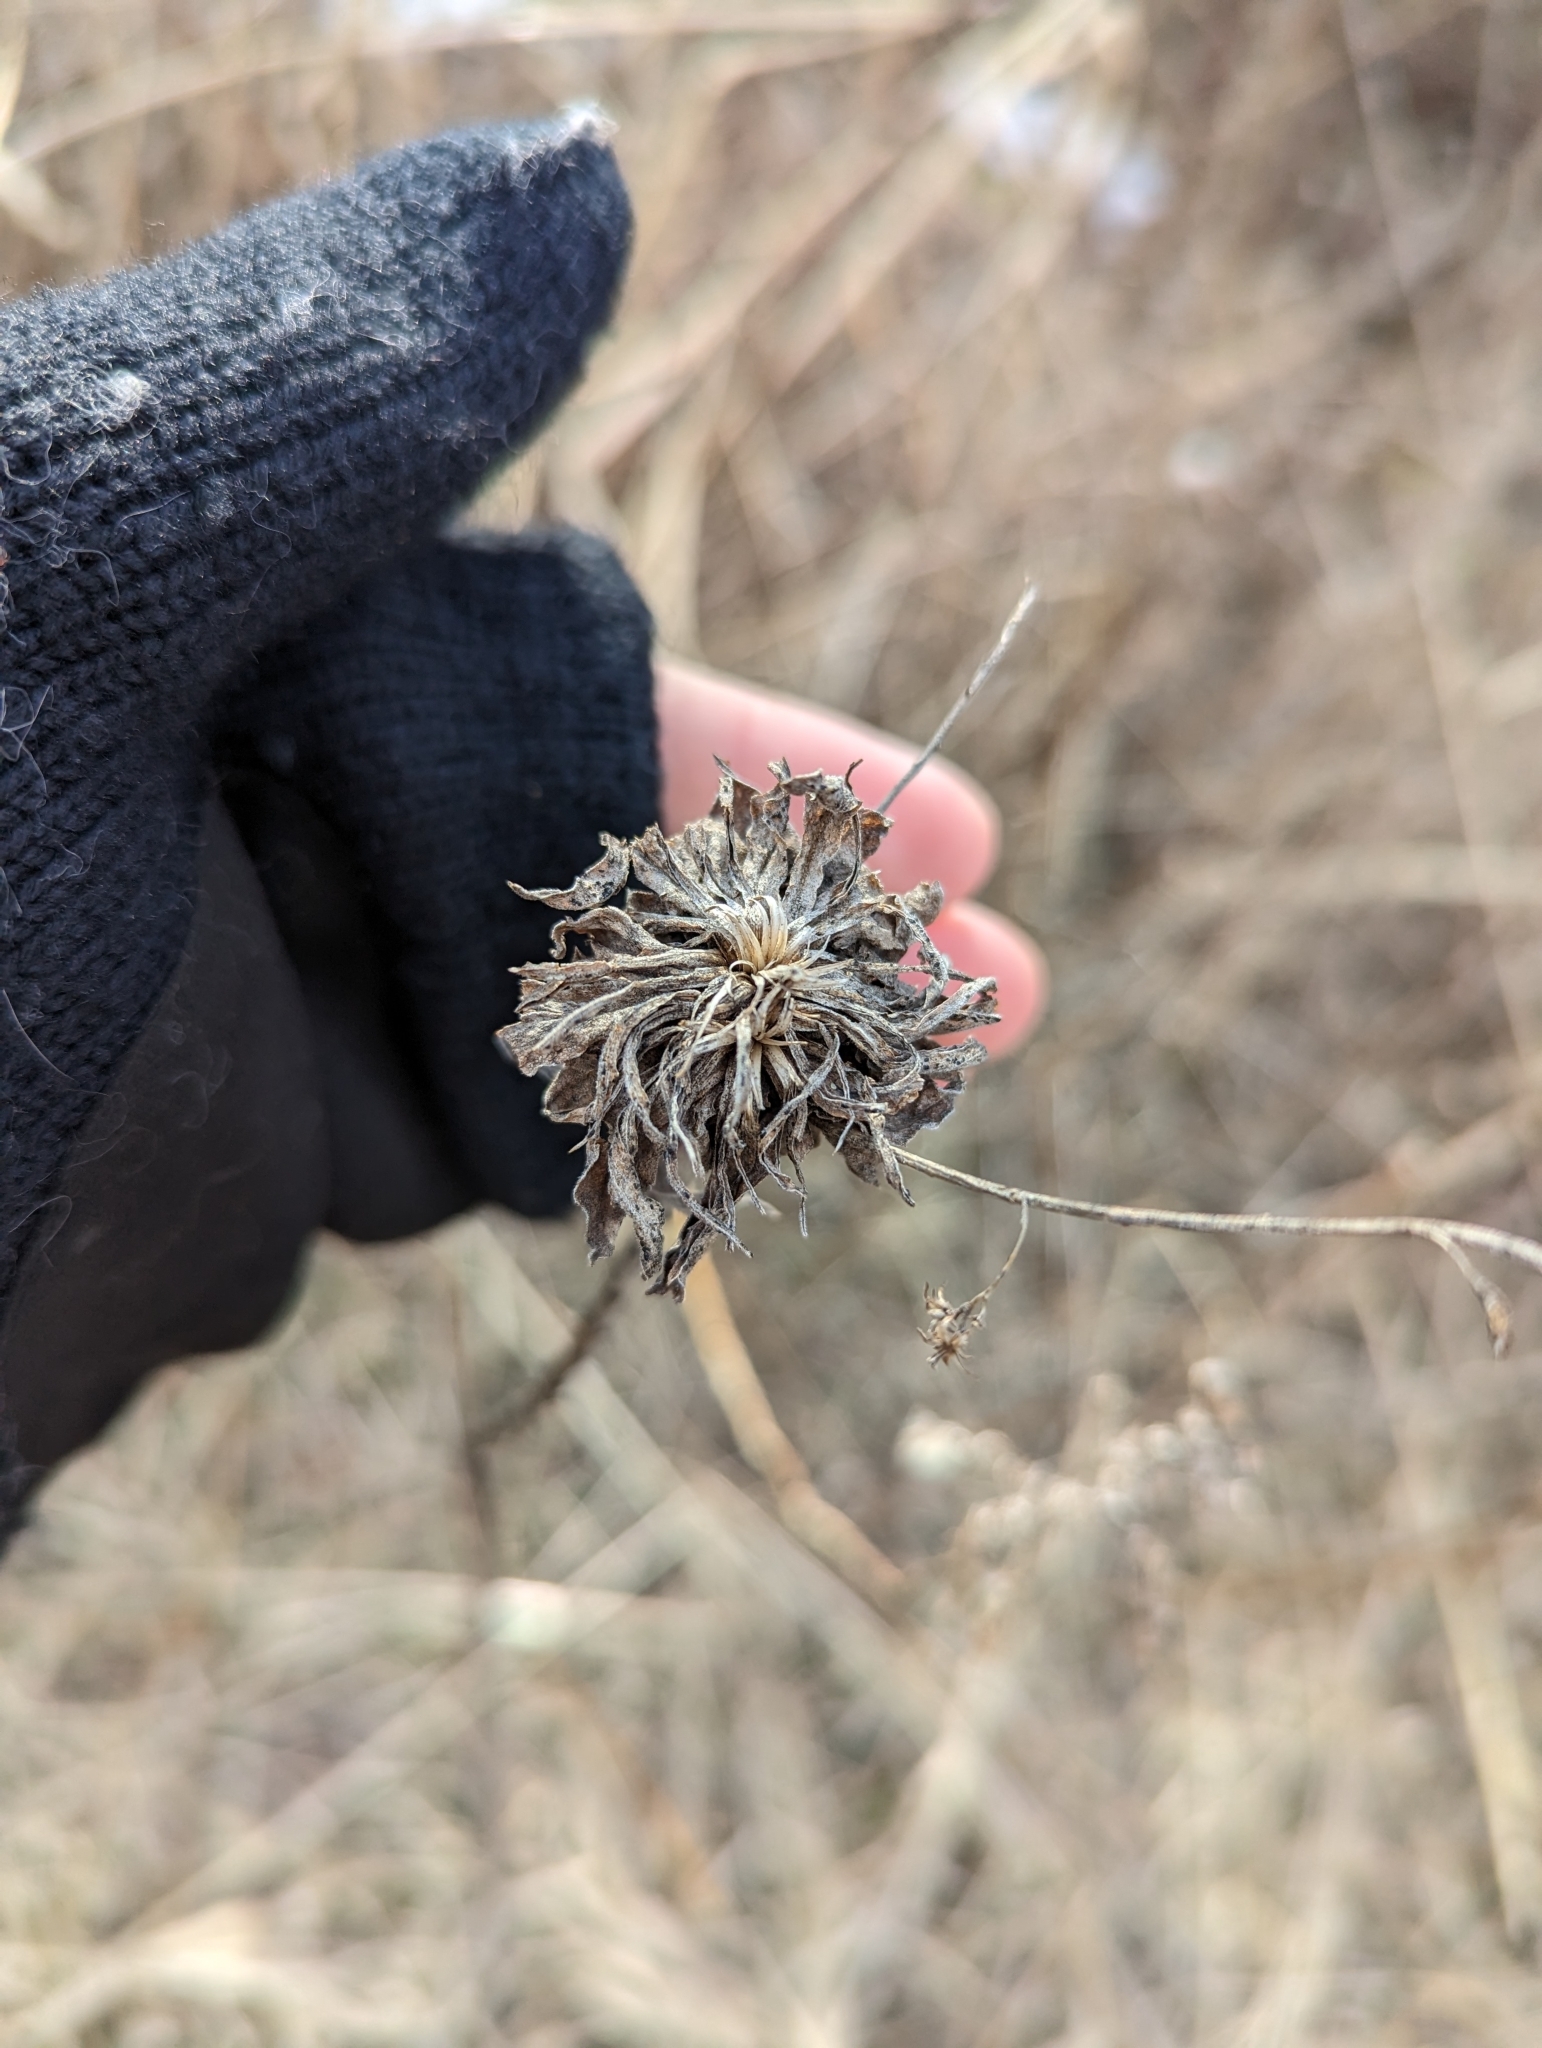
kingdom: Animalia
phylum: Arthropoda
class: Insecta
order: Diptera
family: Cecidomyiidae
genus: Rhopalomyia
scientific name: Rhopalomyia solidaginis
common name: Goldenrod bunch gall midge
